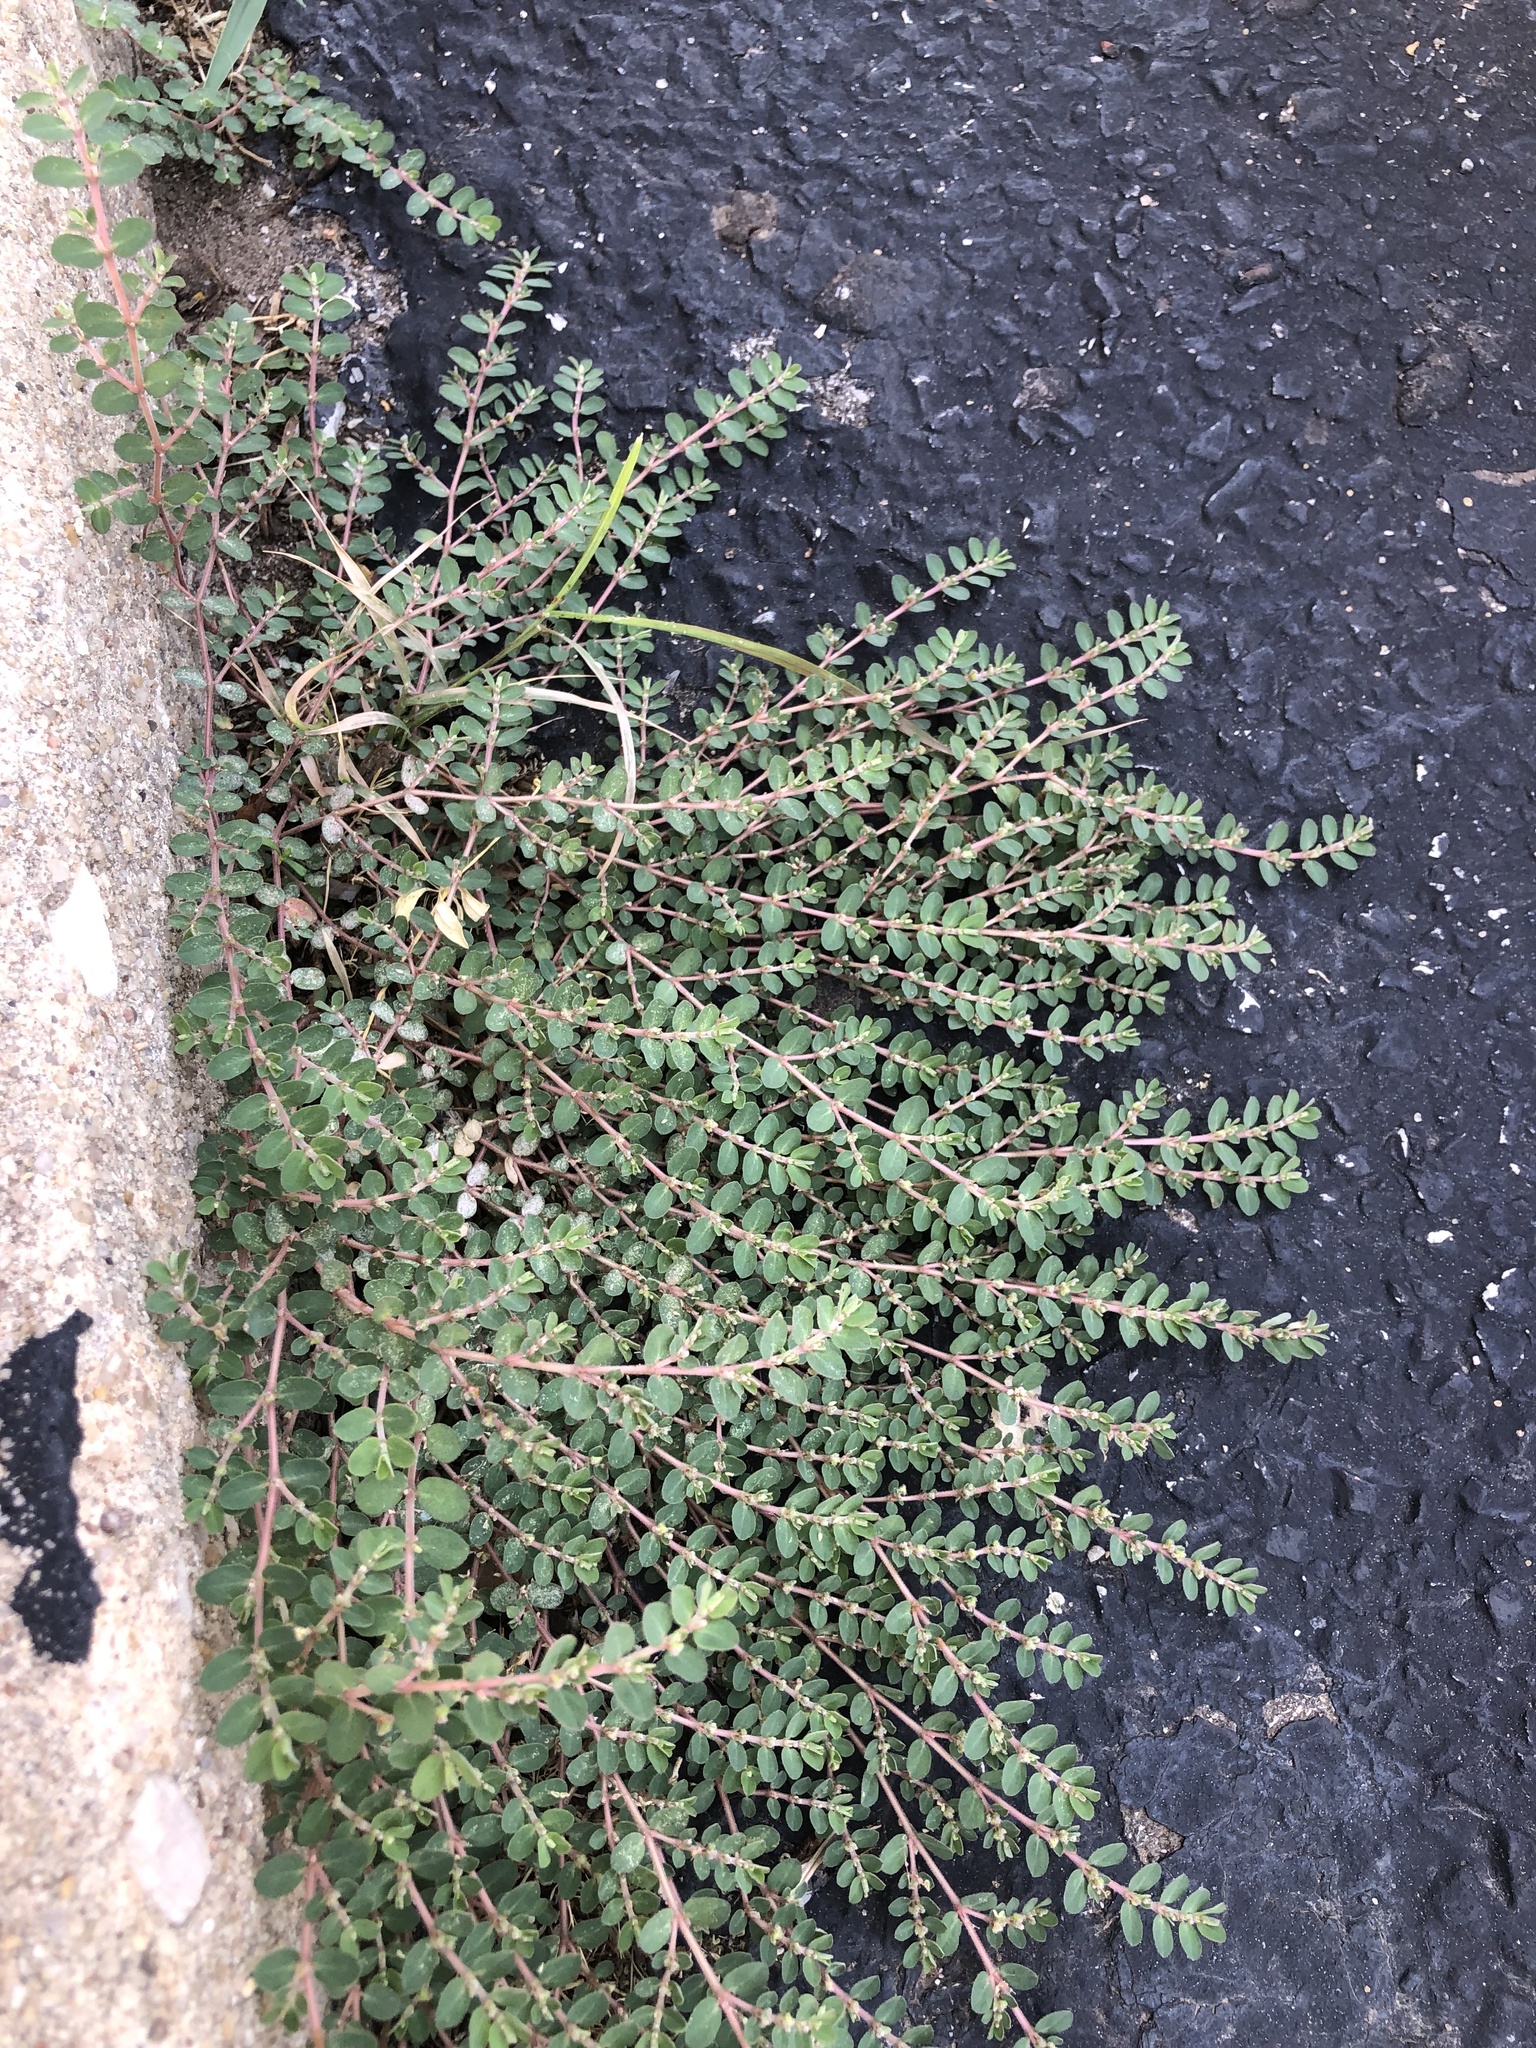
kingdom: Plantae
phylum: Tracheophyta
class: Magnoliopsida
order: Malpighiales
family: Euphorbiaceae
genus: Euphorbia
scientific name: Euphorbia prostrata
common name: Prostrate sandmat
